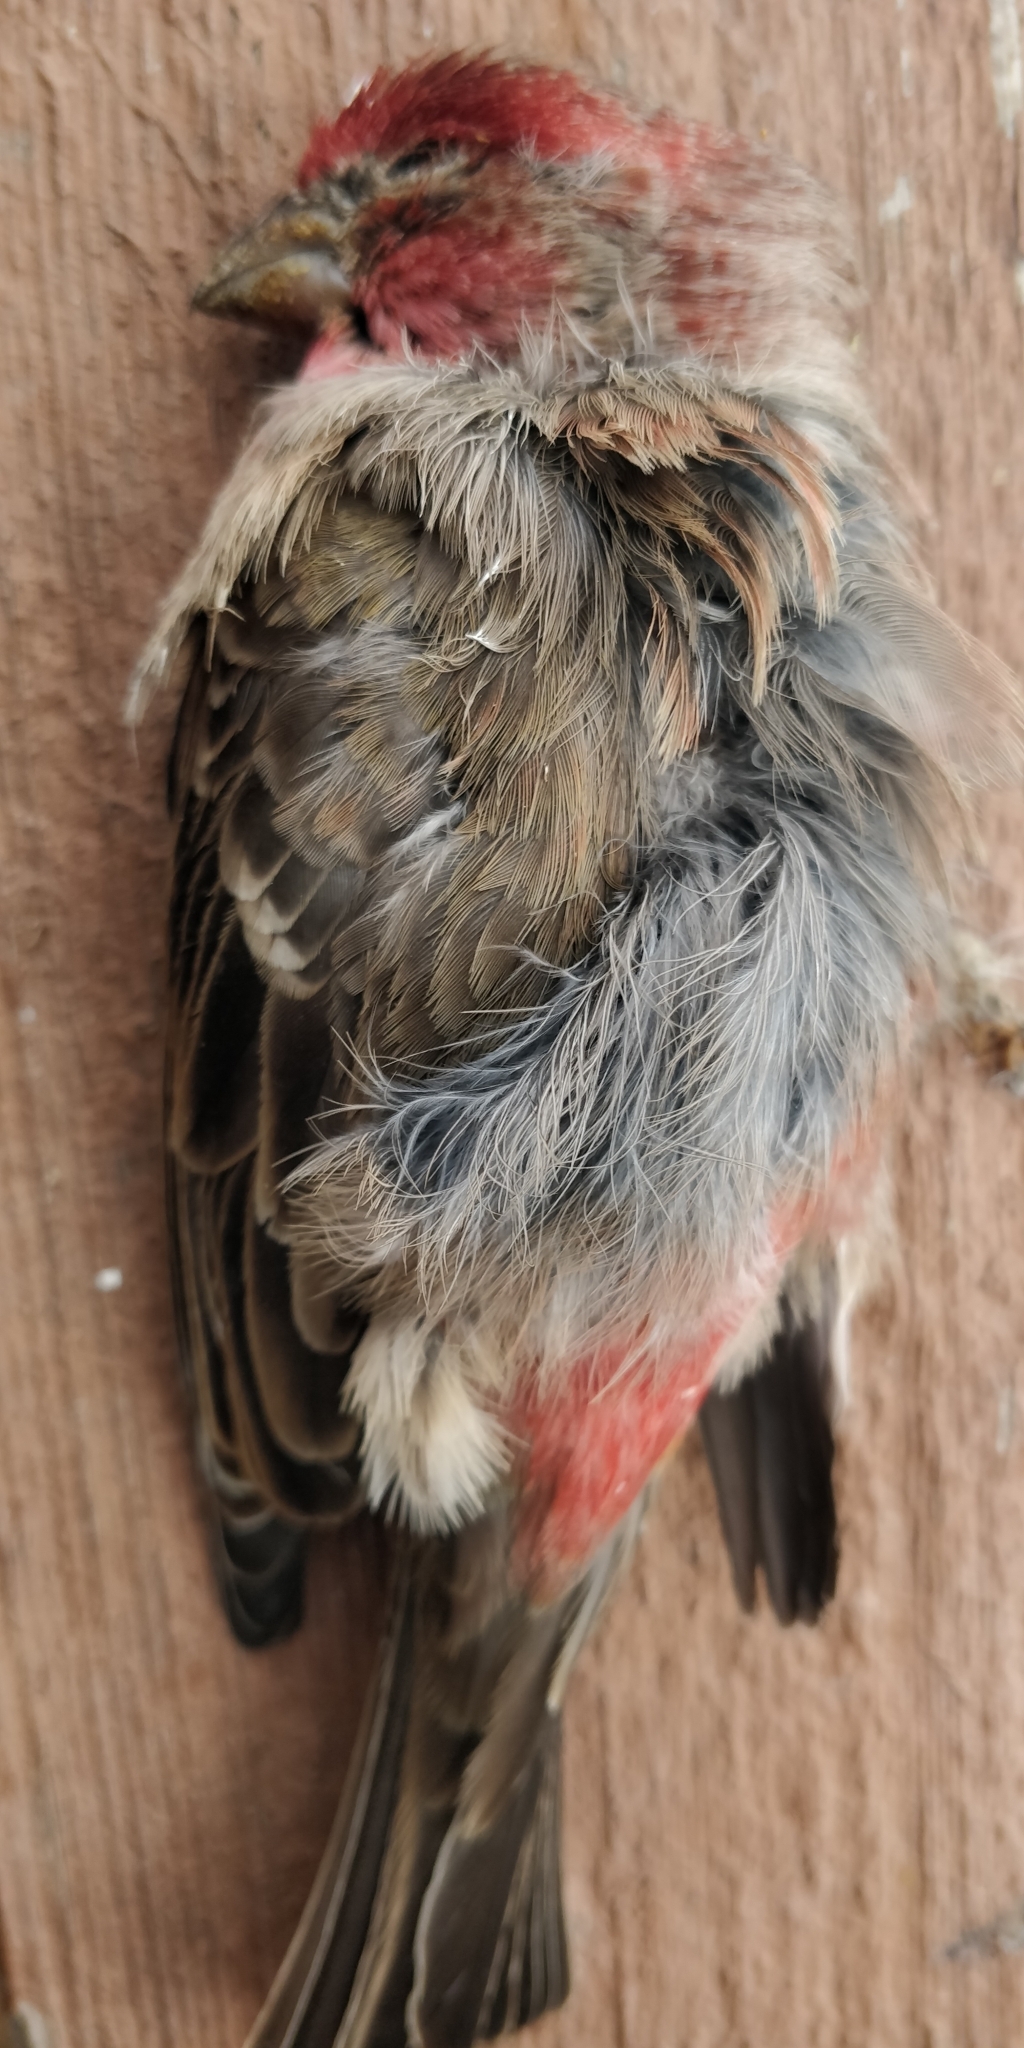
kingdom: Animalia
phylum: Chordata
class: Aves
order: Passeriformes
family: Fringillidae
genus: Haemorhous
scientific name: Haemorhous mexicanus
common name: House finch
